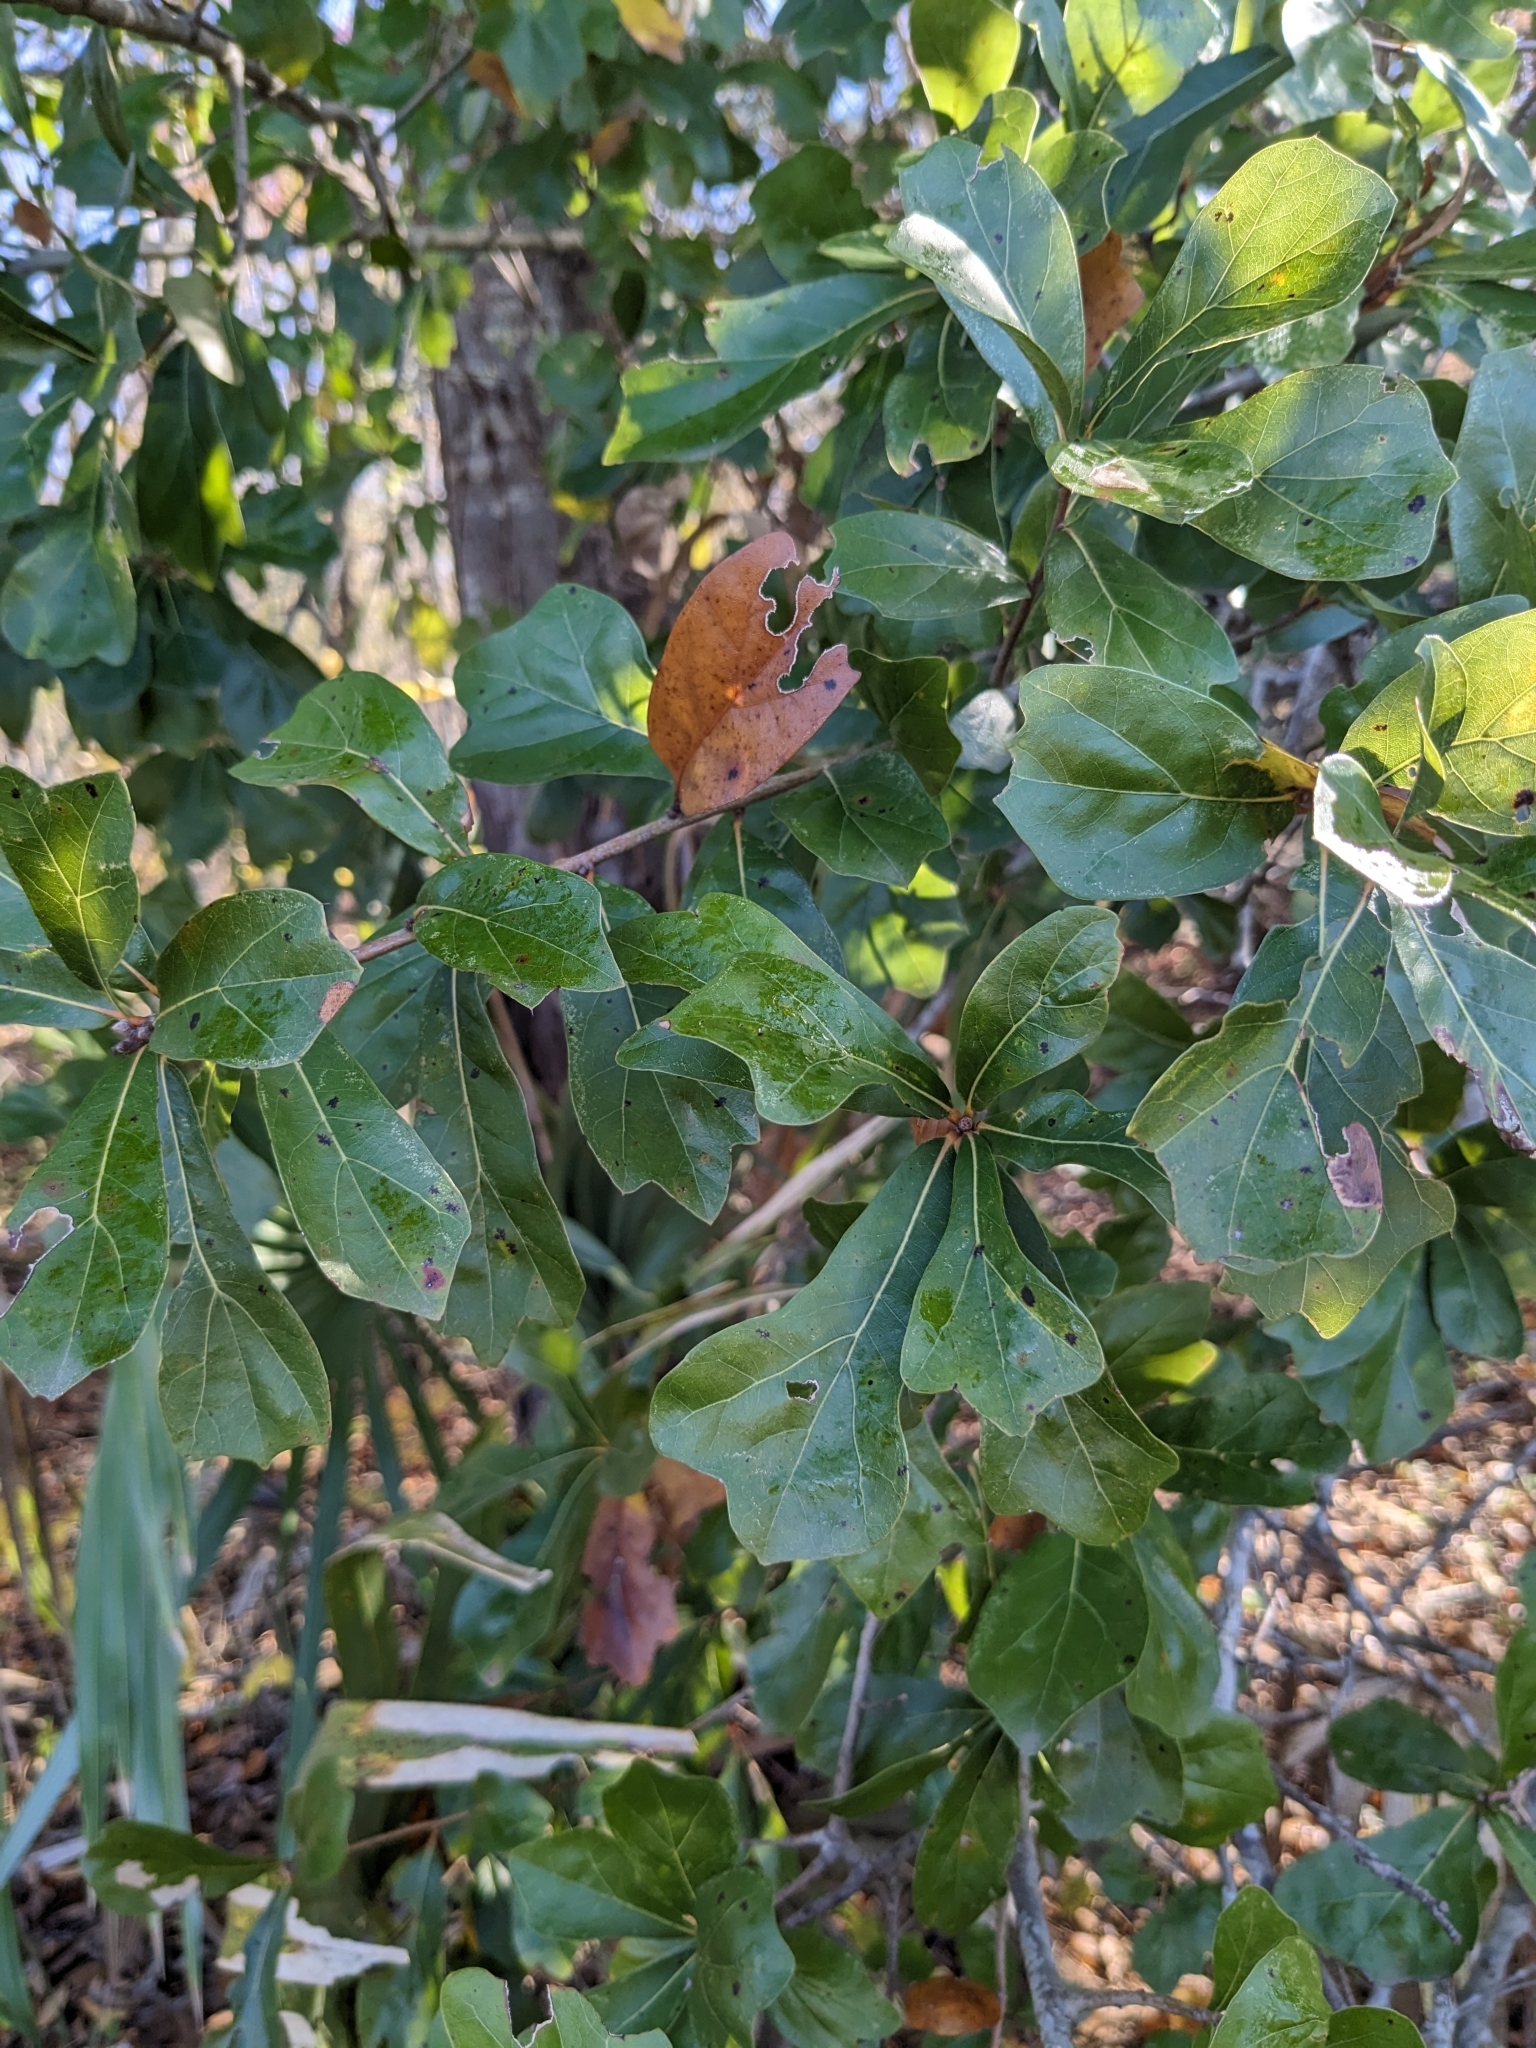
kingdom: Plantae
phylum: Tracheophyta
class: Magnoliopsida
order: Fagales
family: Fagaceae
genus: Quercus
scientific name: Quercus nigra
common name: Water oak
